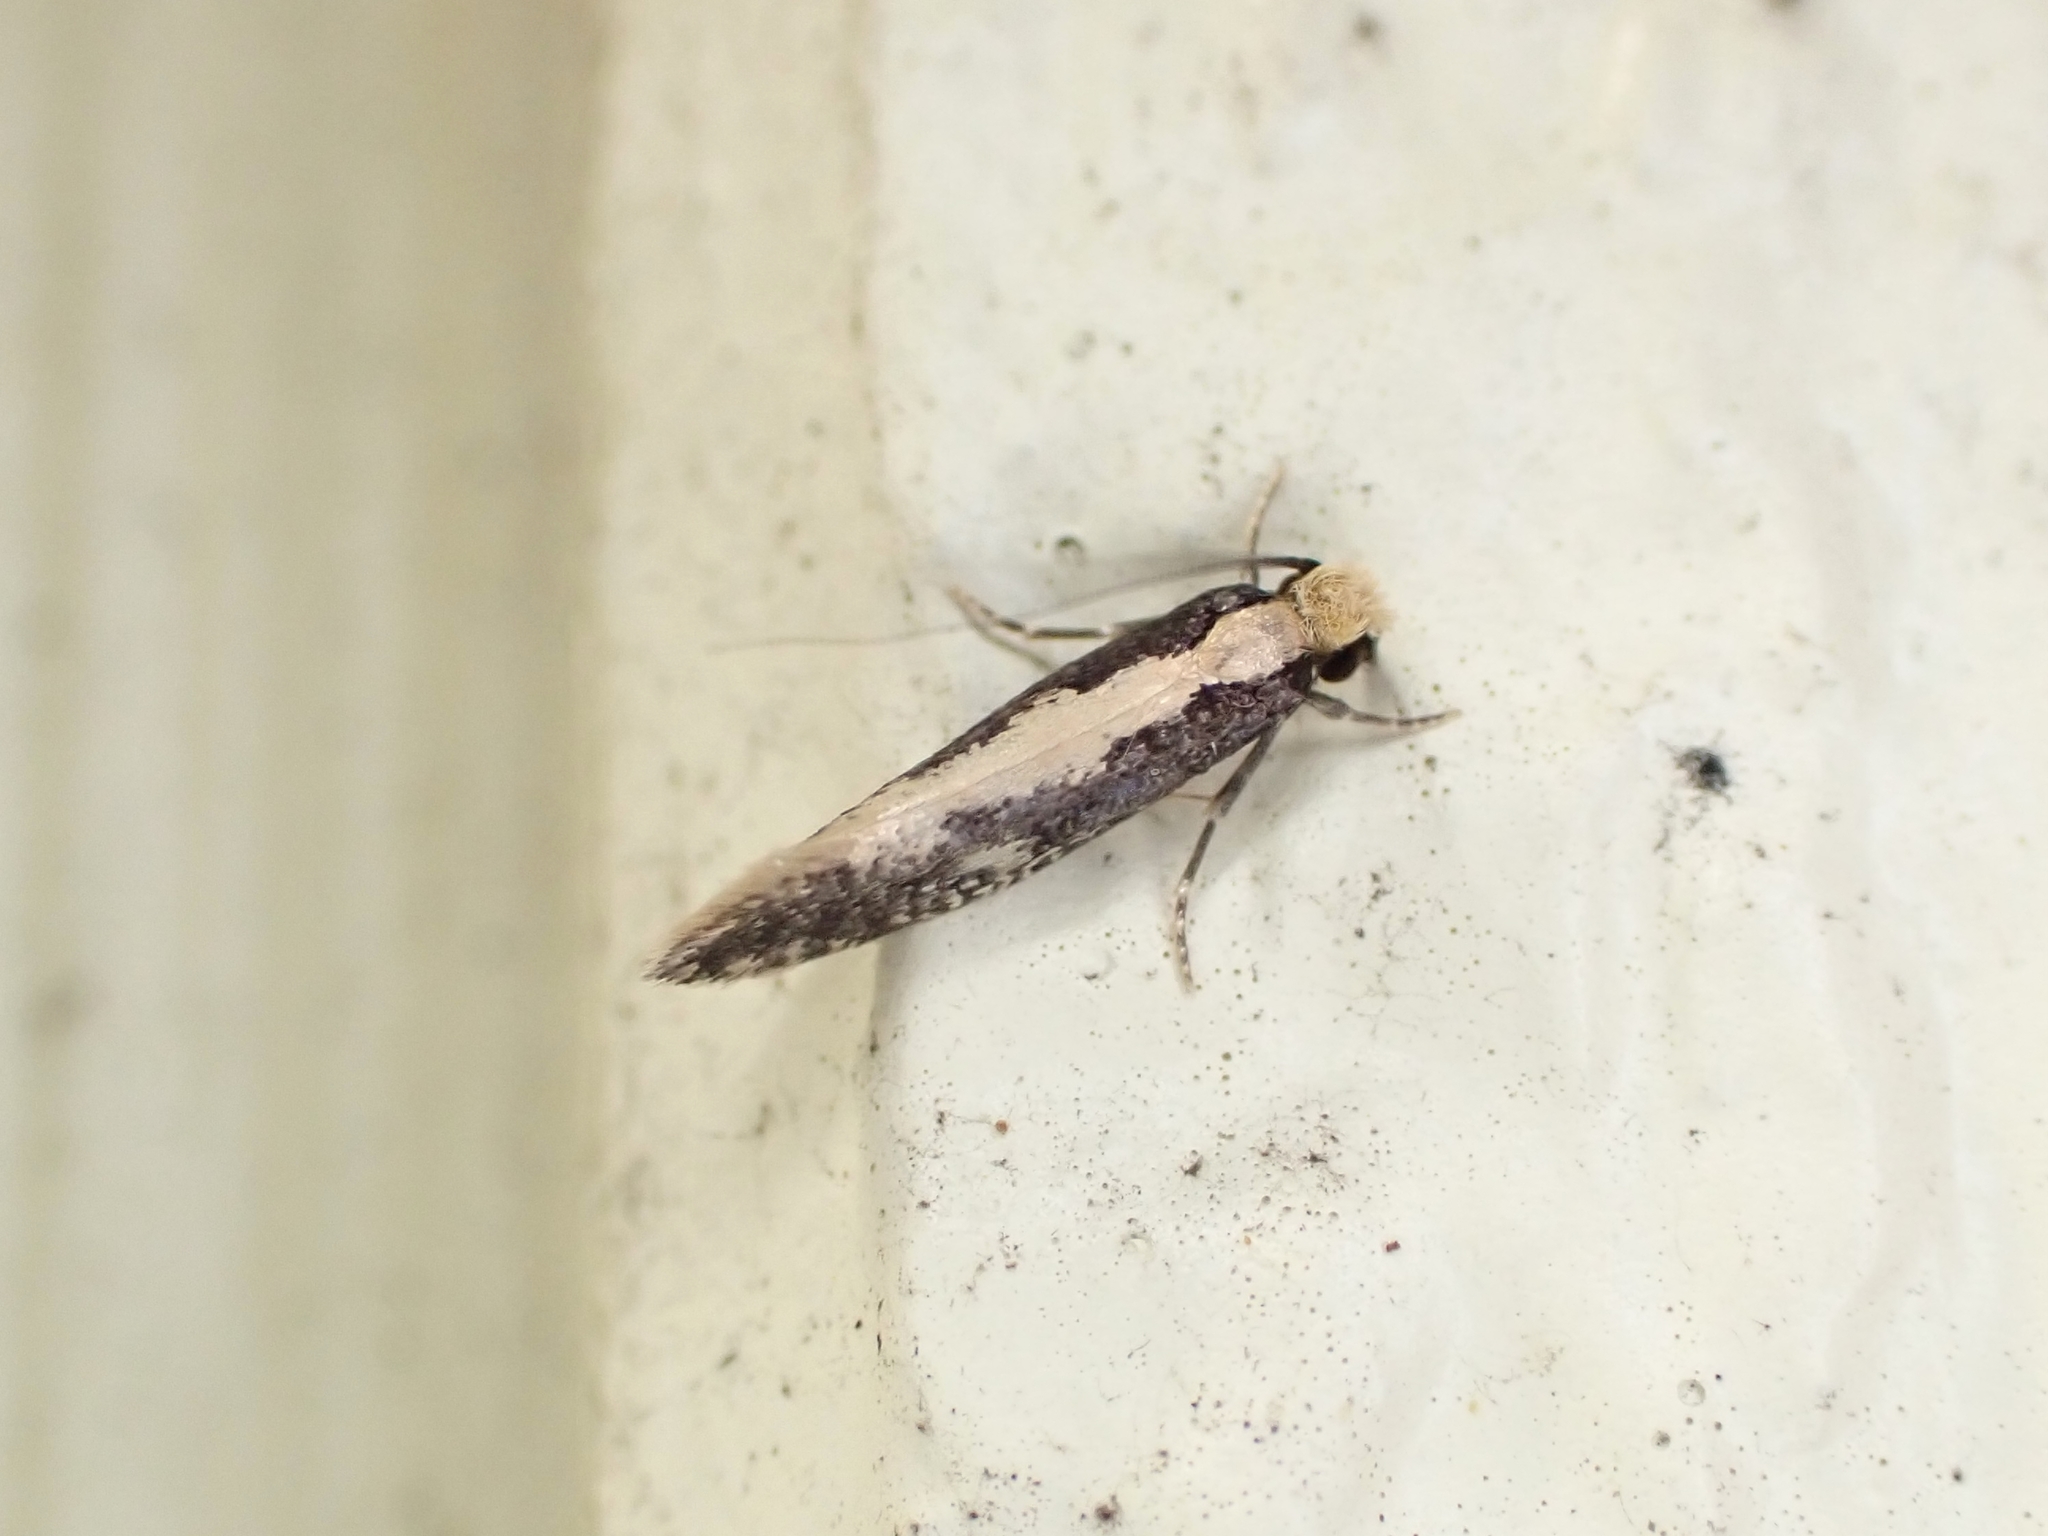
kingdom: Animalia
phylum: Arthropoda
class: Insecta
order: Lepidoptera
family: Tineidae
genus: Monopis
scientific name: Monopis crocicapitella
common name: Moth
